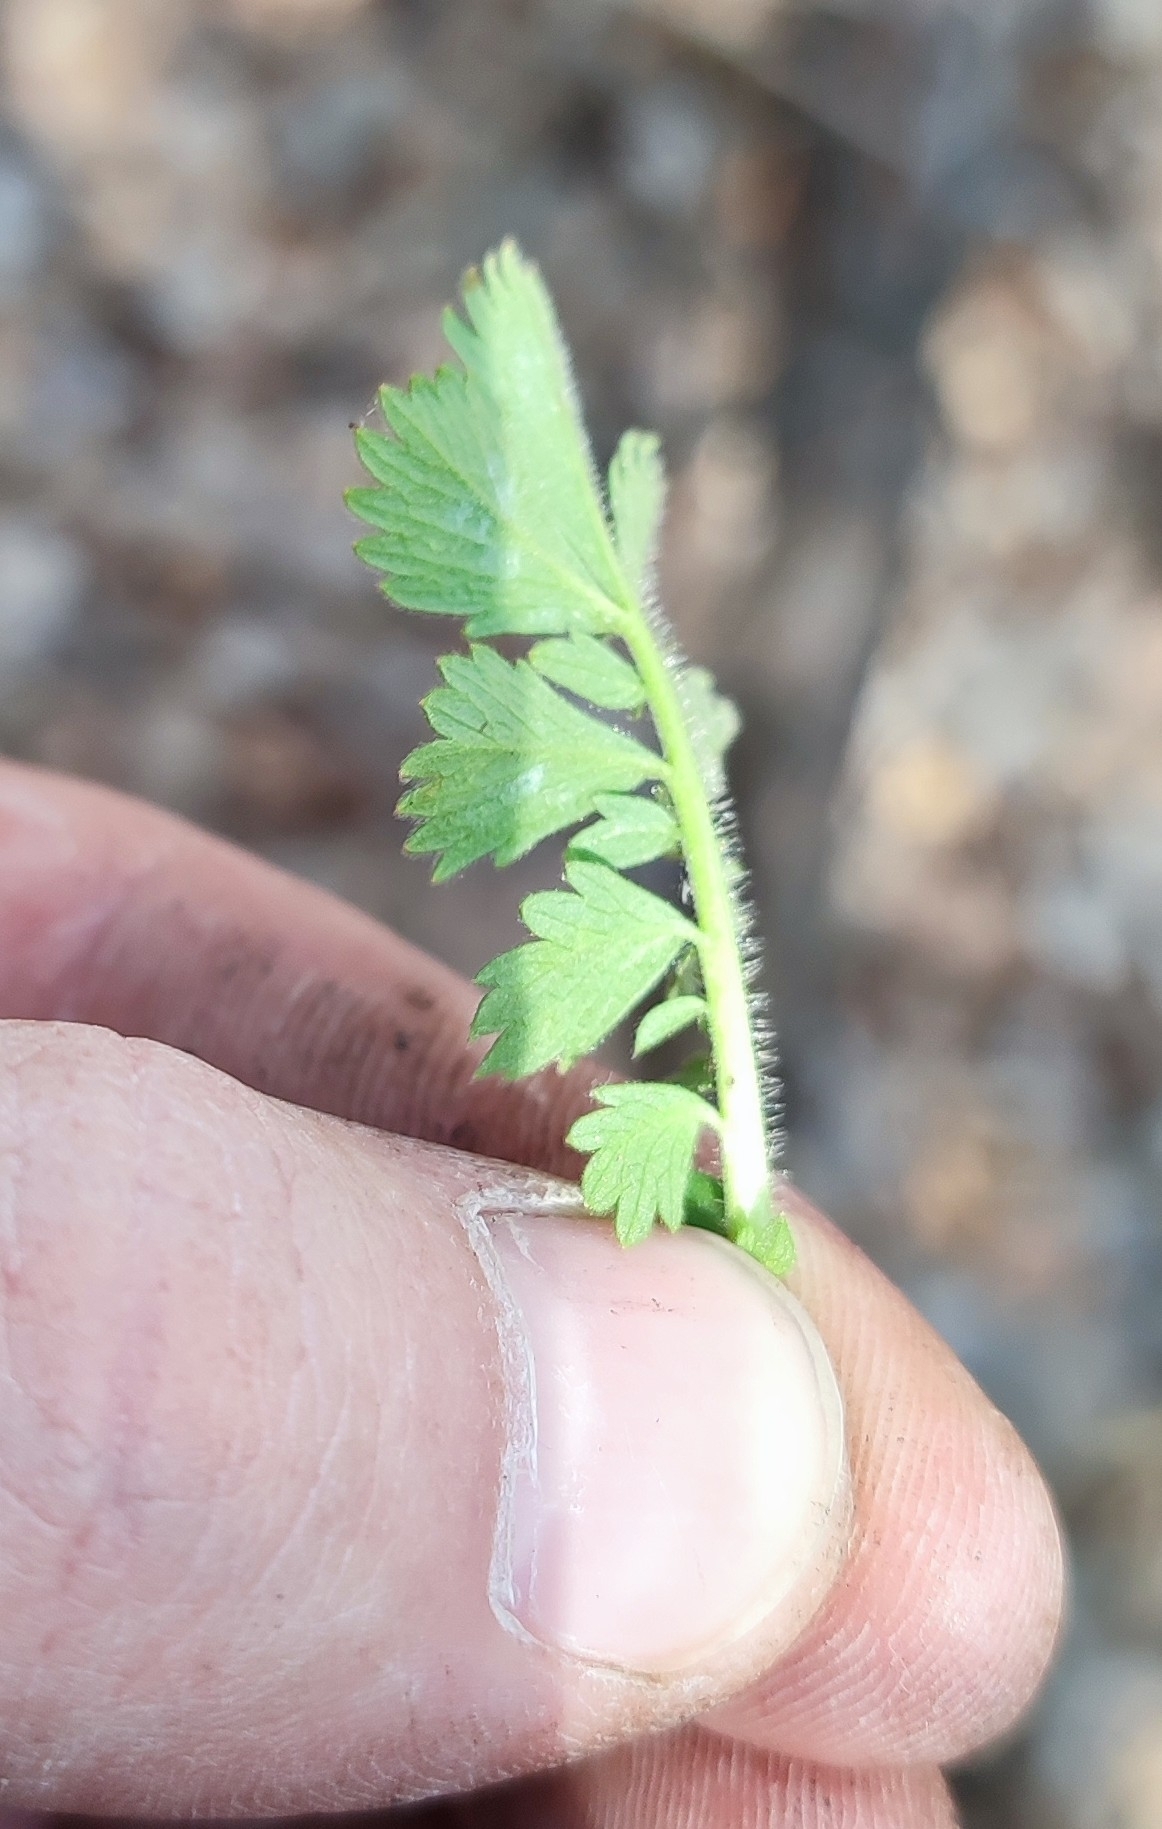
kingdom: Plantae
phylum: Tracheophyta
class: Magnoliopsida
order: Rosales
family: Rosaceae
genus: Agrimonia
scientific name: Agrimonia pilosa
